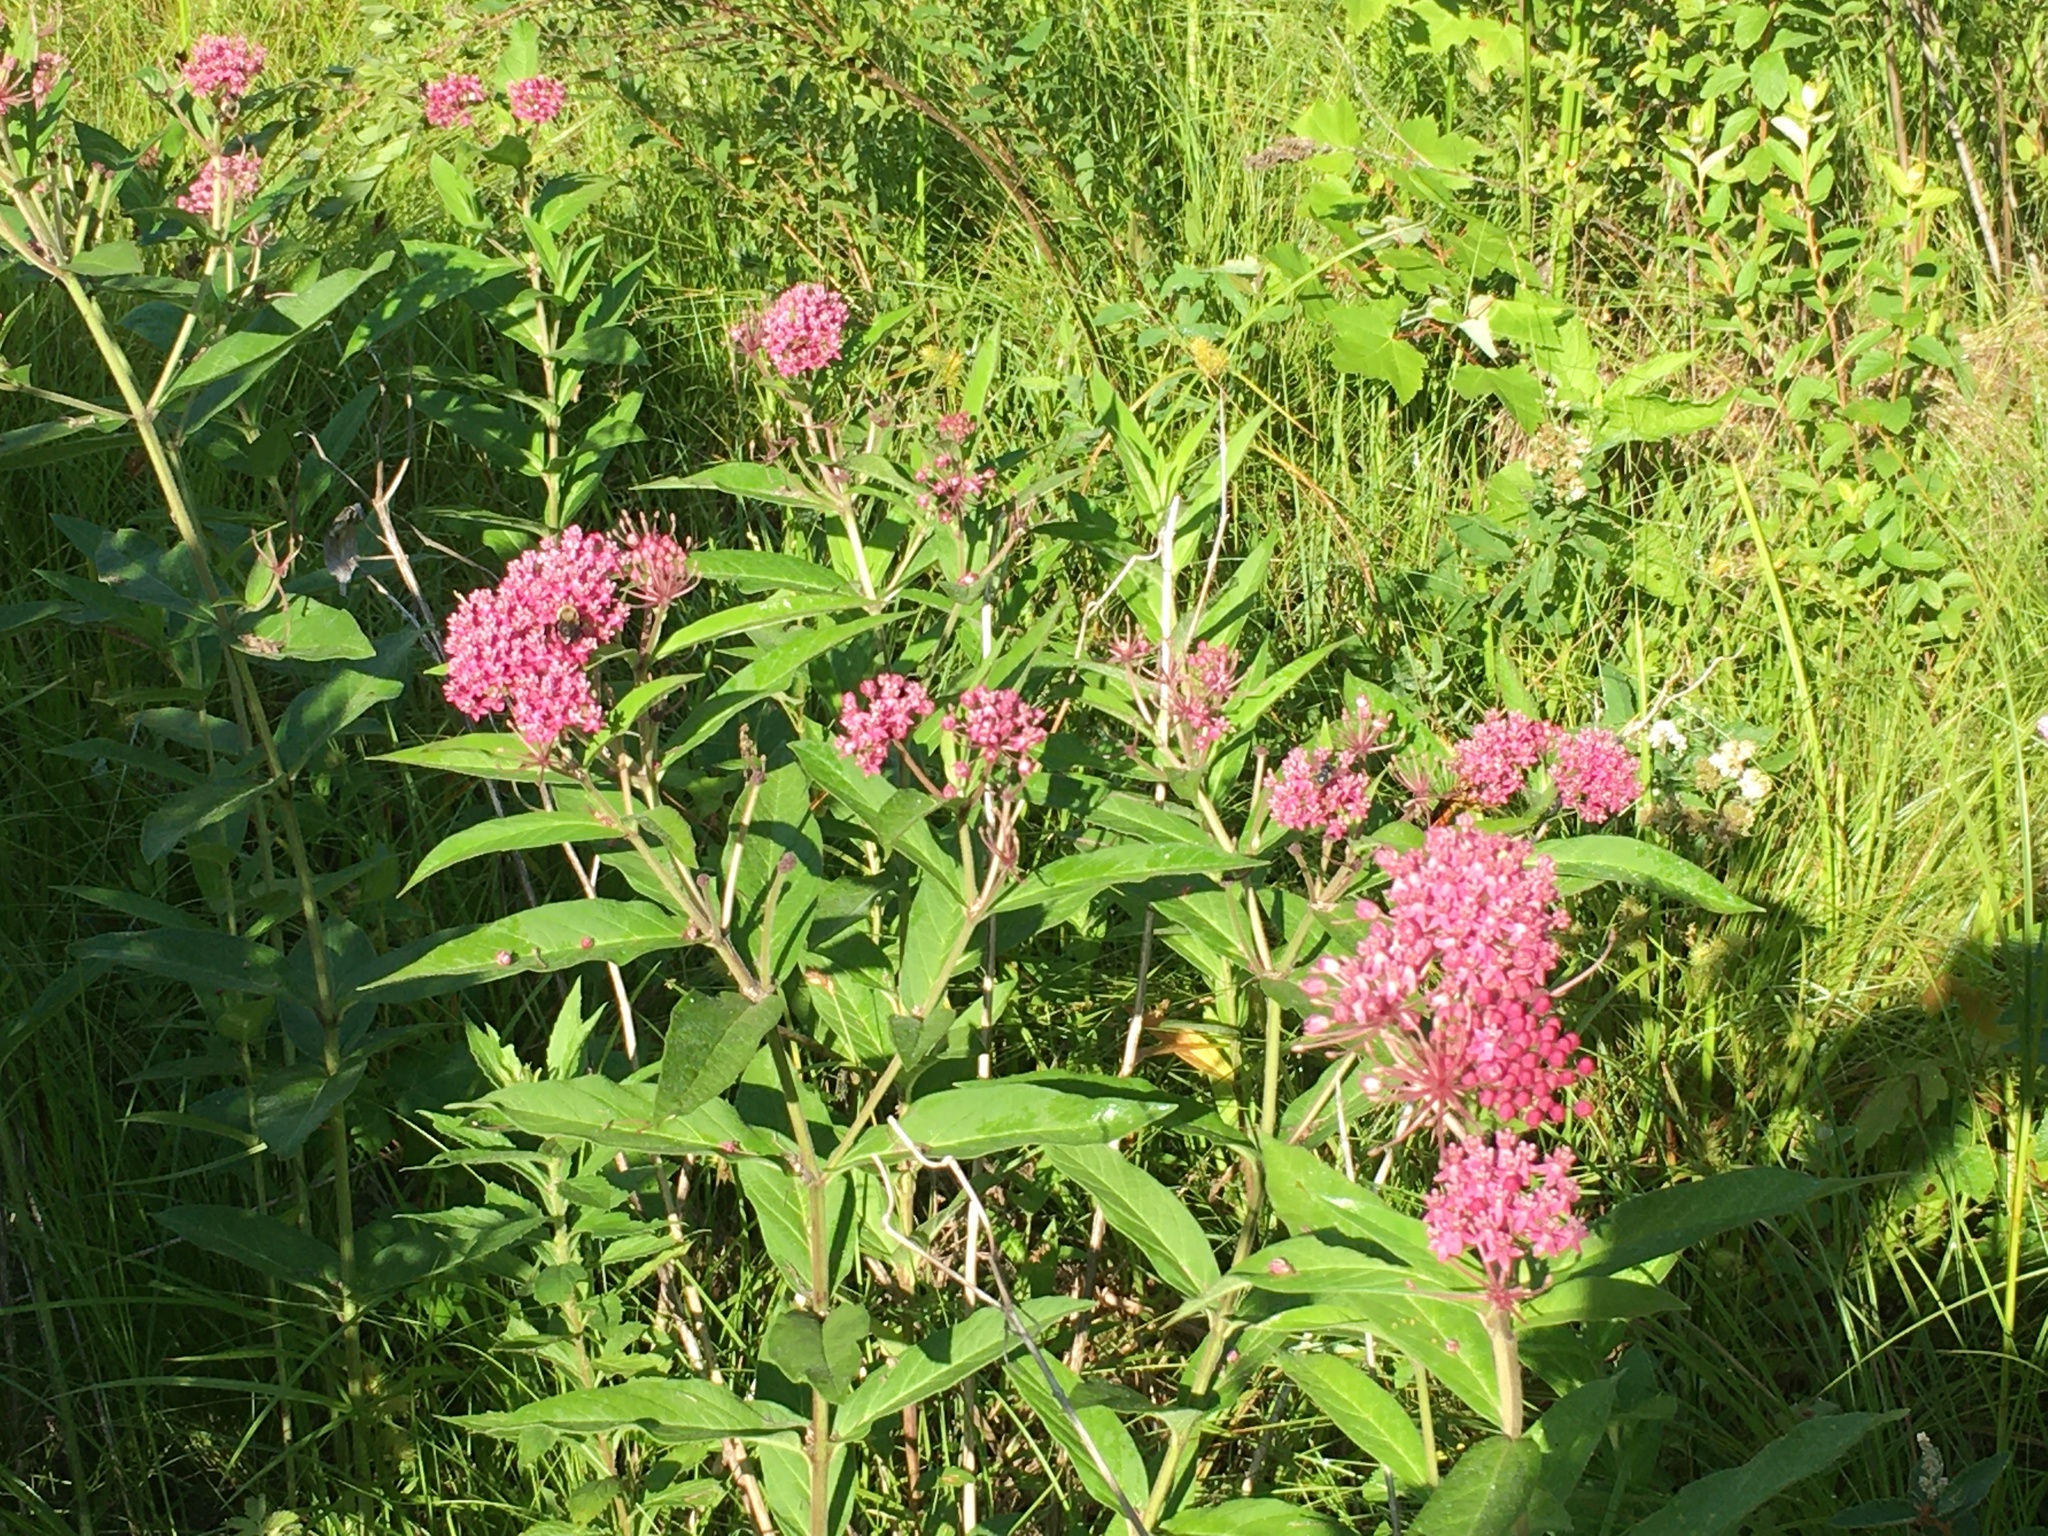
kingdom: Plantae
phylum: Tracheophyta
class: Magnoliopsida
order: Gentianales
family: Apocynaceae
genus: Asclepias
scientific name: Asclepias incarnata
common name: Swamp milkweed
